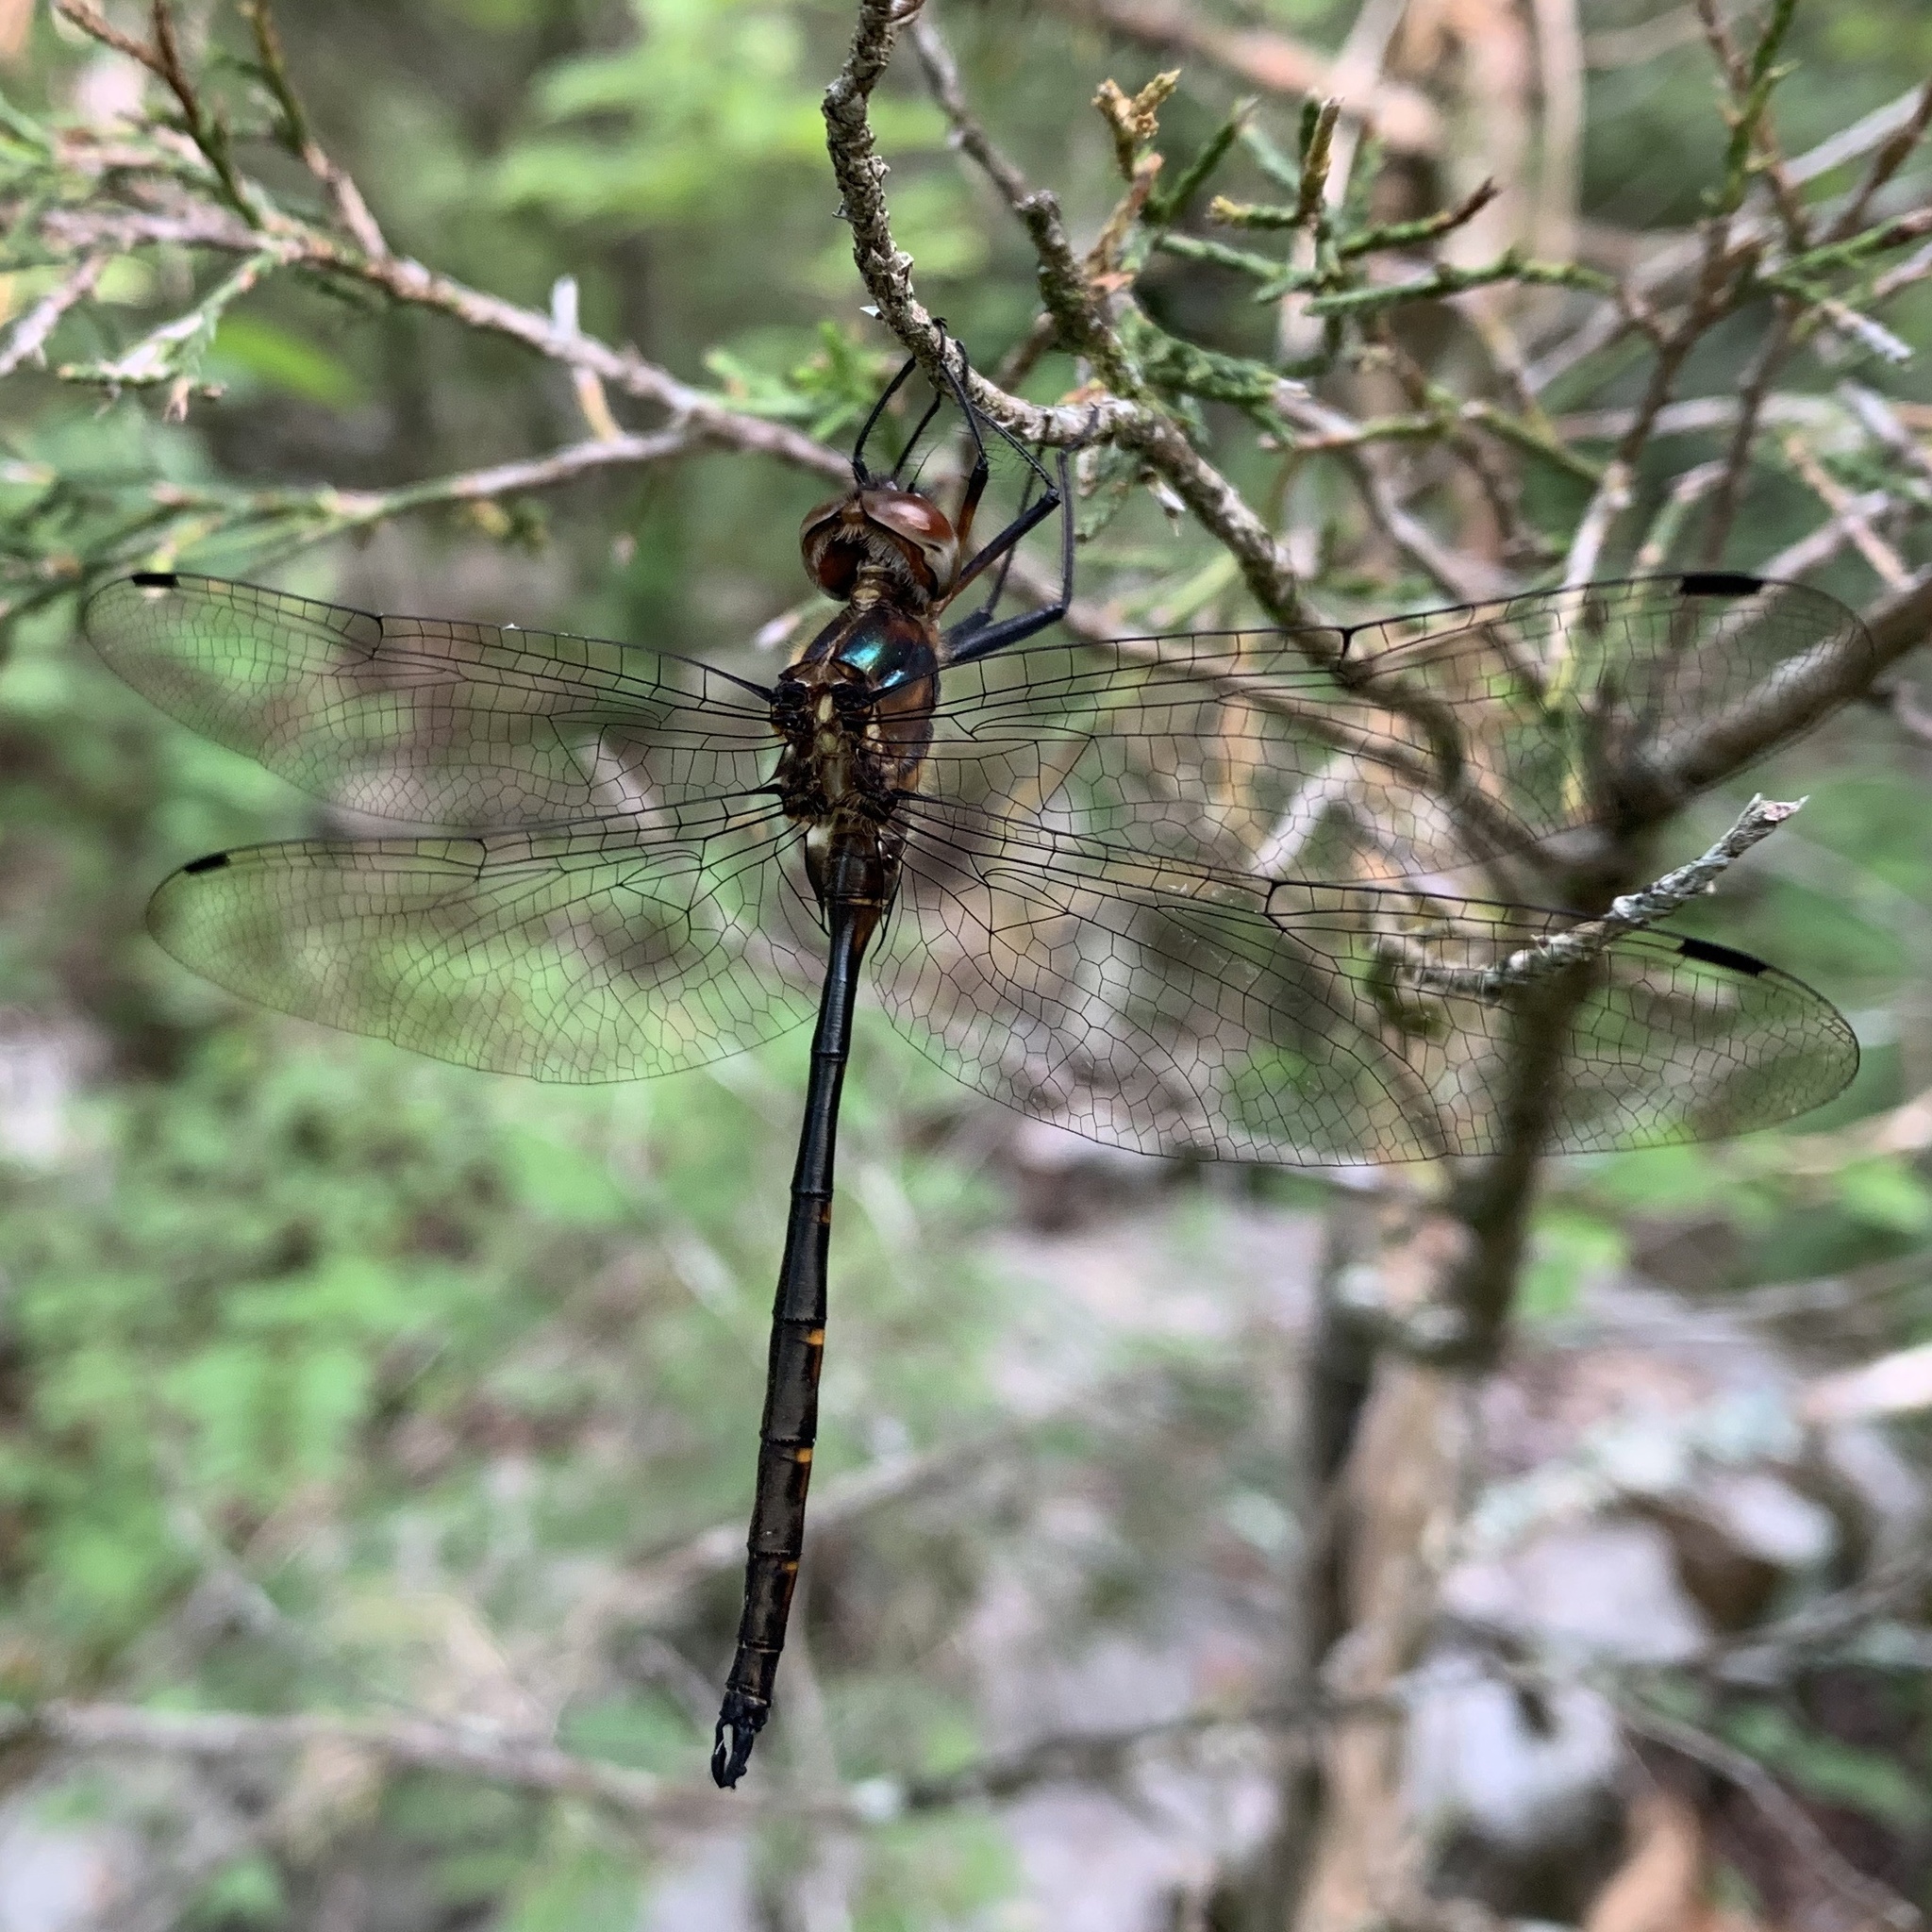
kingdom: Animalia
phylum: Arthropoda
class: Insecta
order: Odonata
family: Corduliidae
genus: Somatochlora
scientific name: Somatochlora linearis
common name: Mocha emerald
